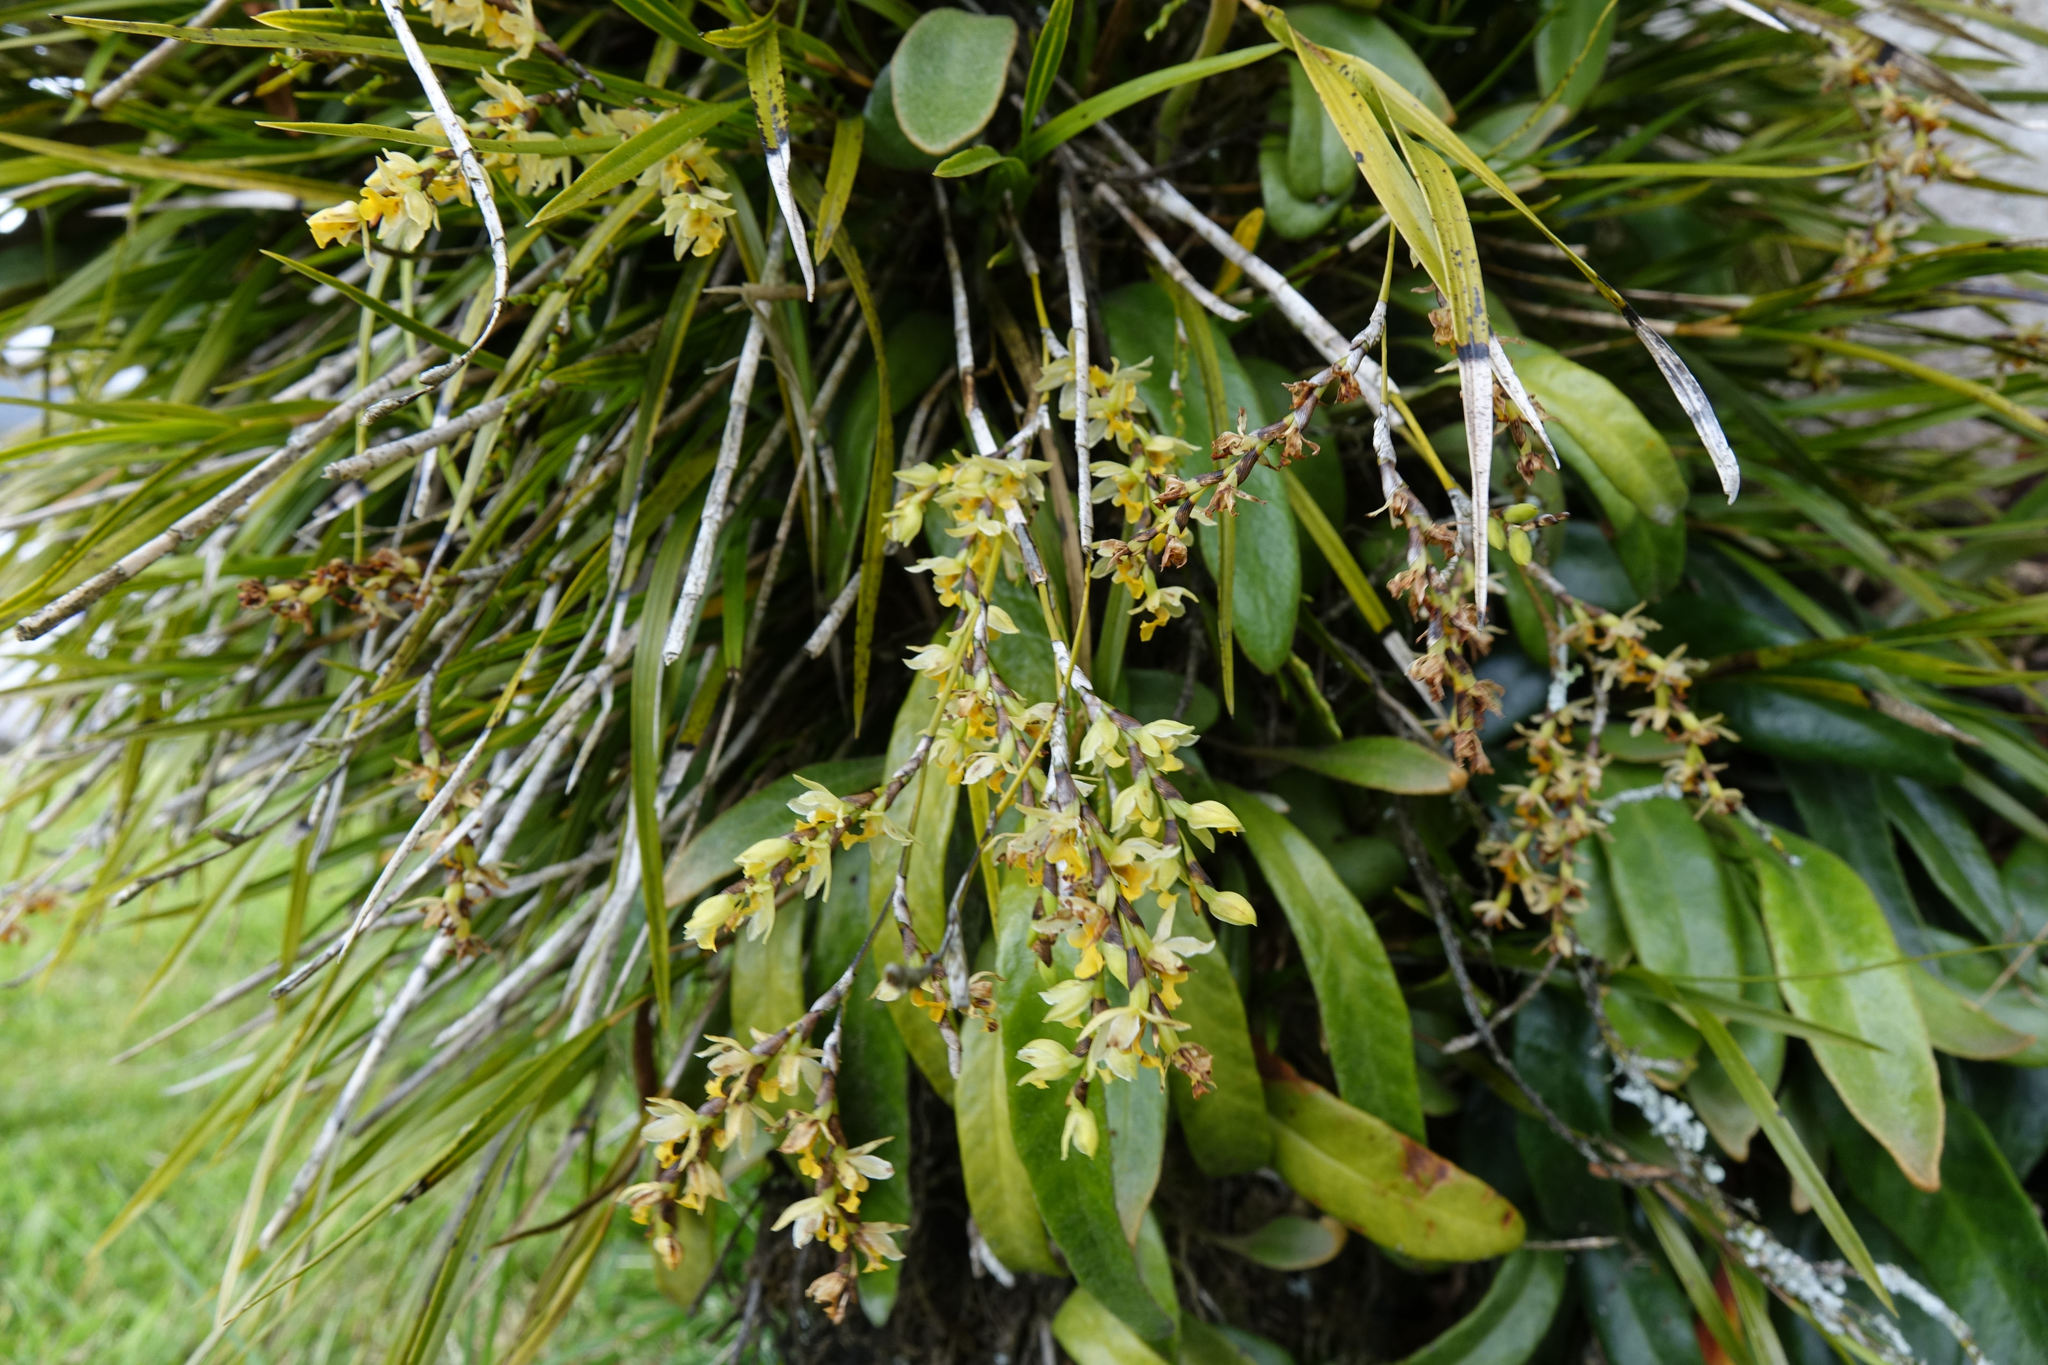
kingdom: Plantae
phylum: Tracheophyta
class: Liliopsida
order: Asparagales
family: Orchidaceae
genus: Earina
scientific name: Earina mucronata
